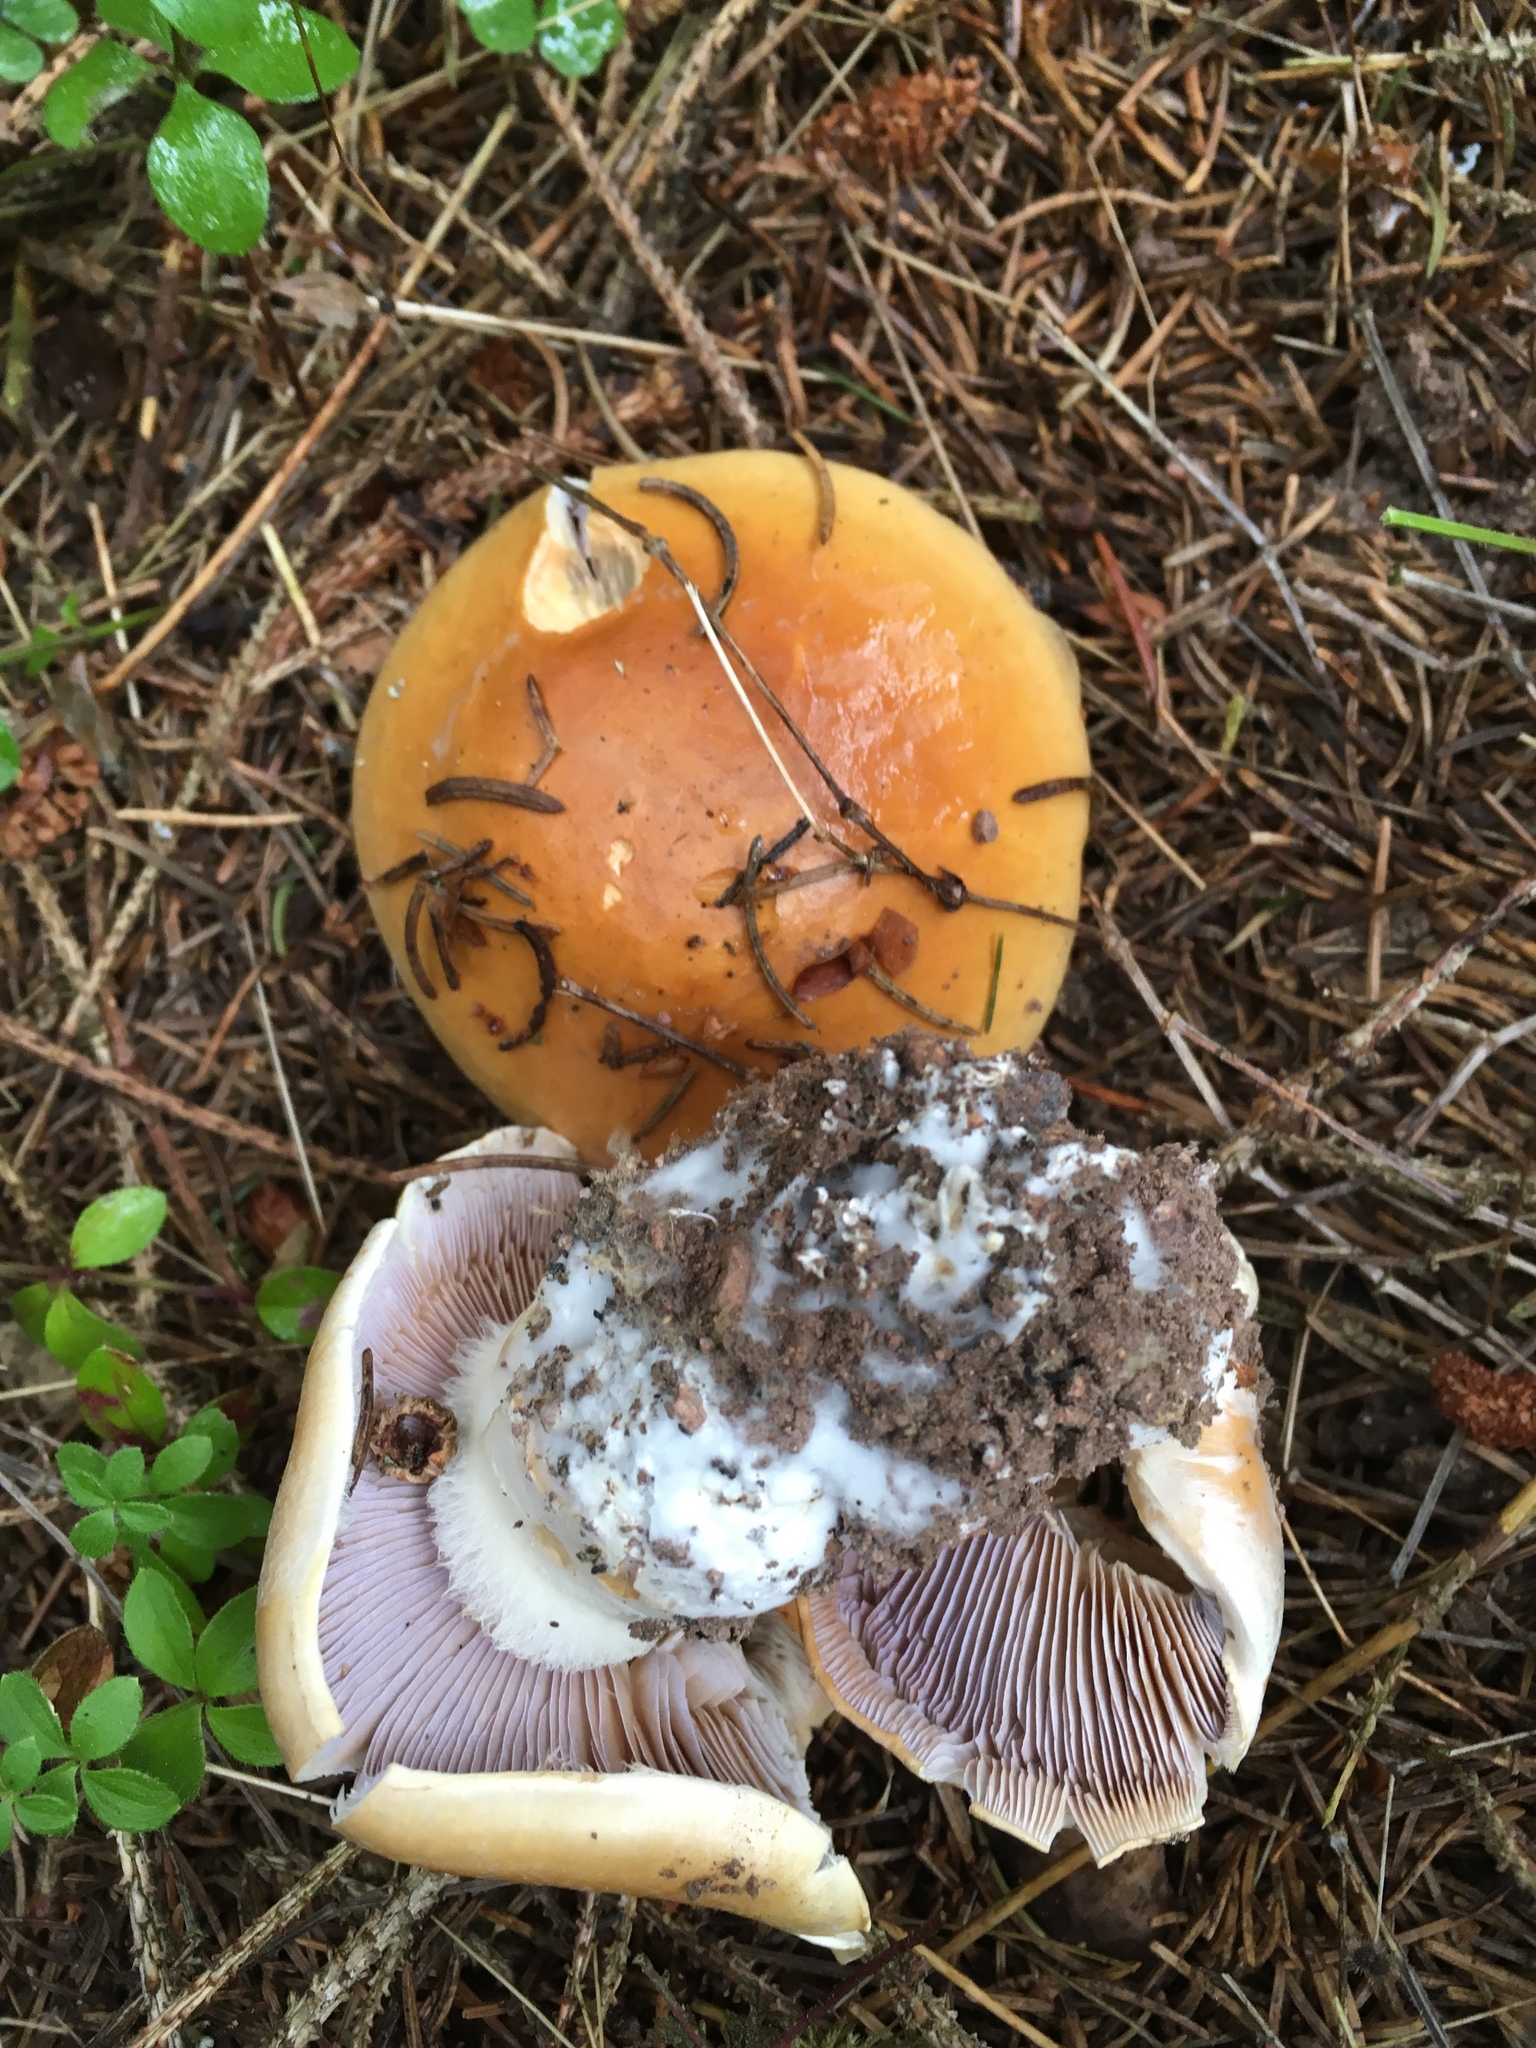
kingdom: Fungi
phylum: Basidiomycota
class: Agaricomycetes
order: Agaricales
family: Cortinariaceae
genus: Cortinarius
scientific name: Cortinarius varius
